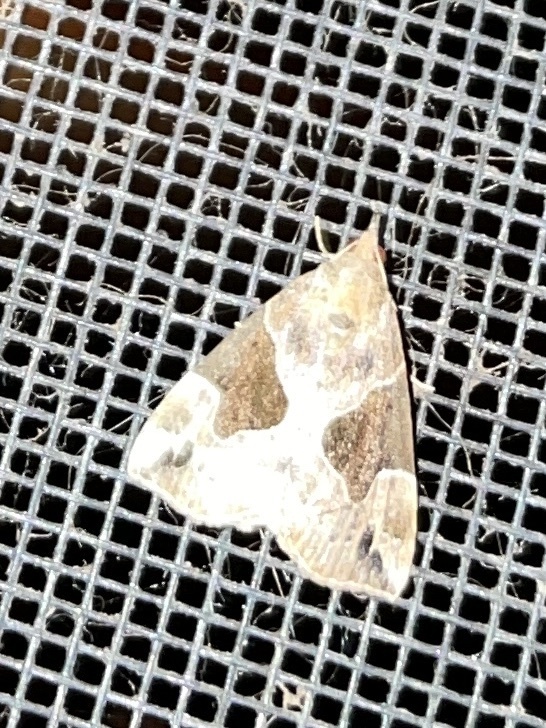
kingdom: Animalia
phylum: Arthropoda
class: Insecta
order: Lepidoptera
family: Erebidae
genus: Hypena
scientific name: Hypena manalis
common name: Flowing-line bomolocha moth
